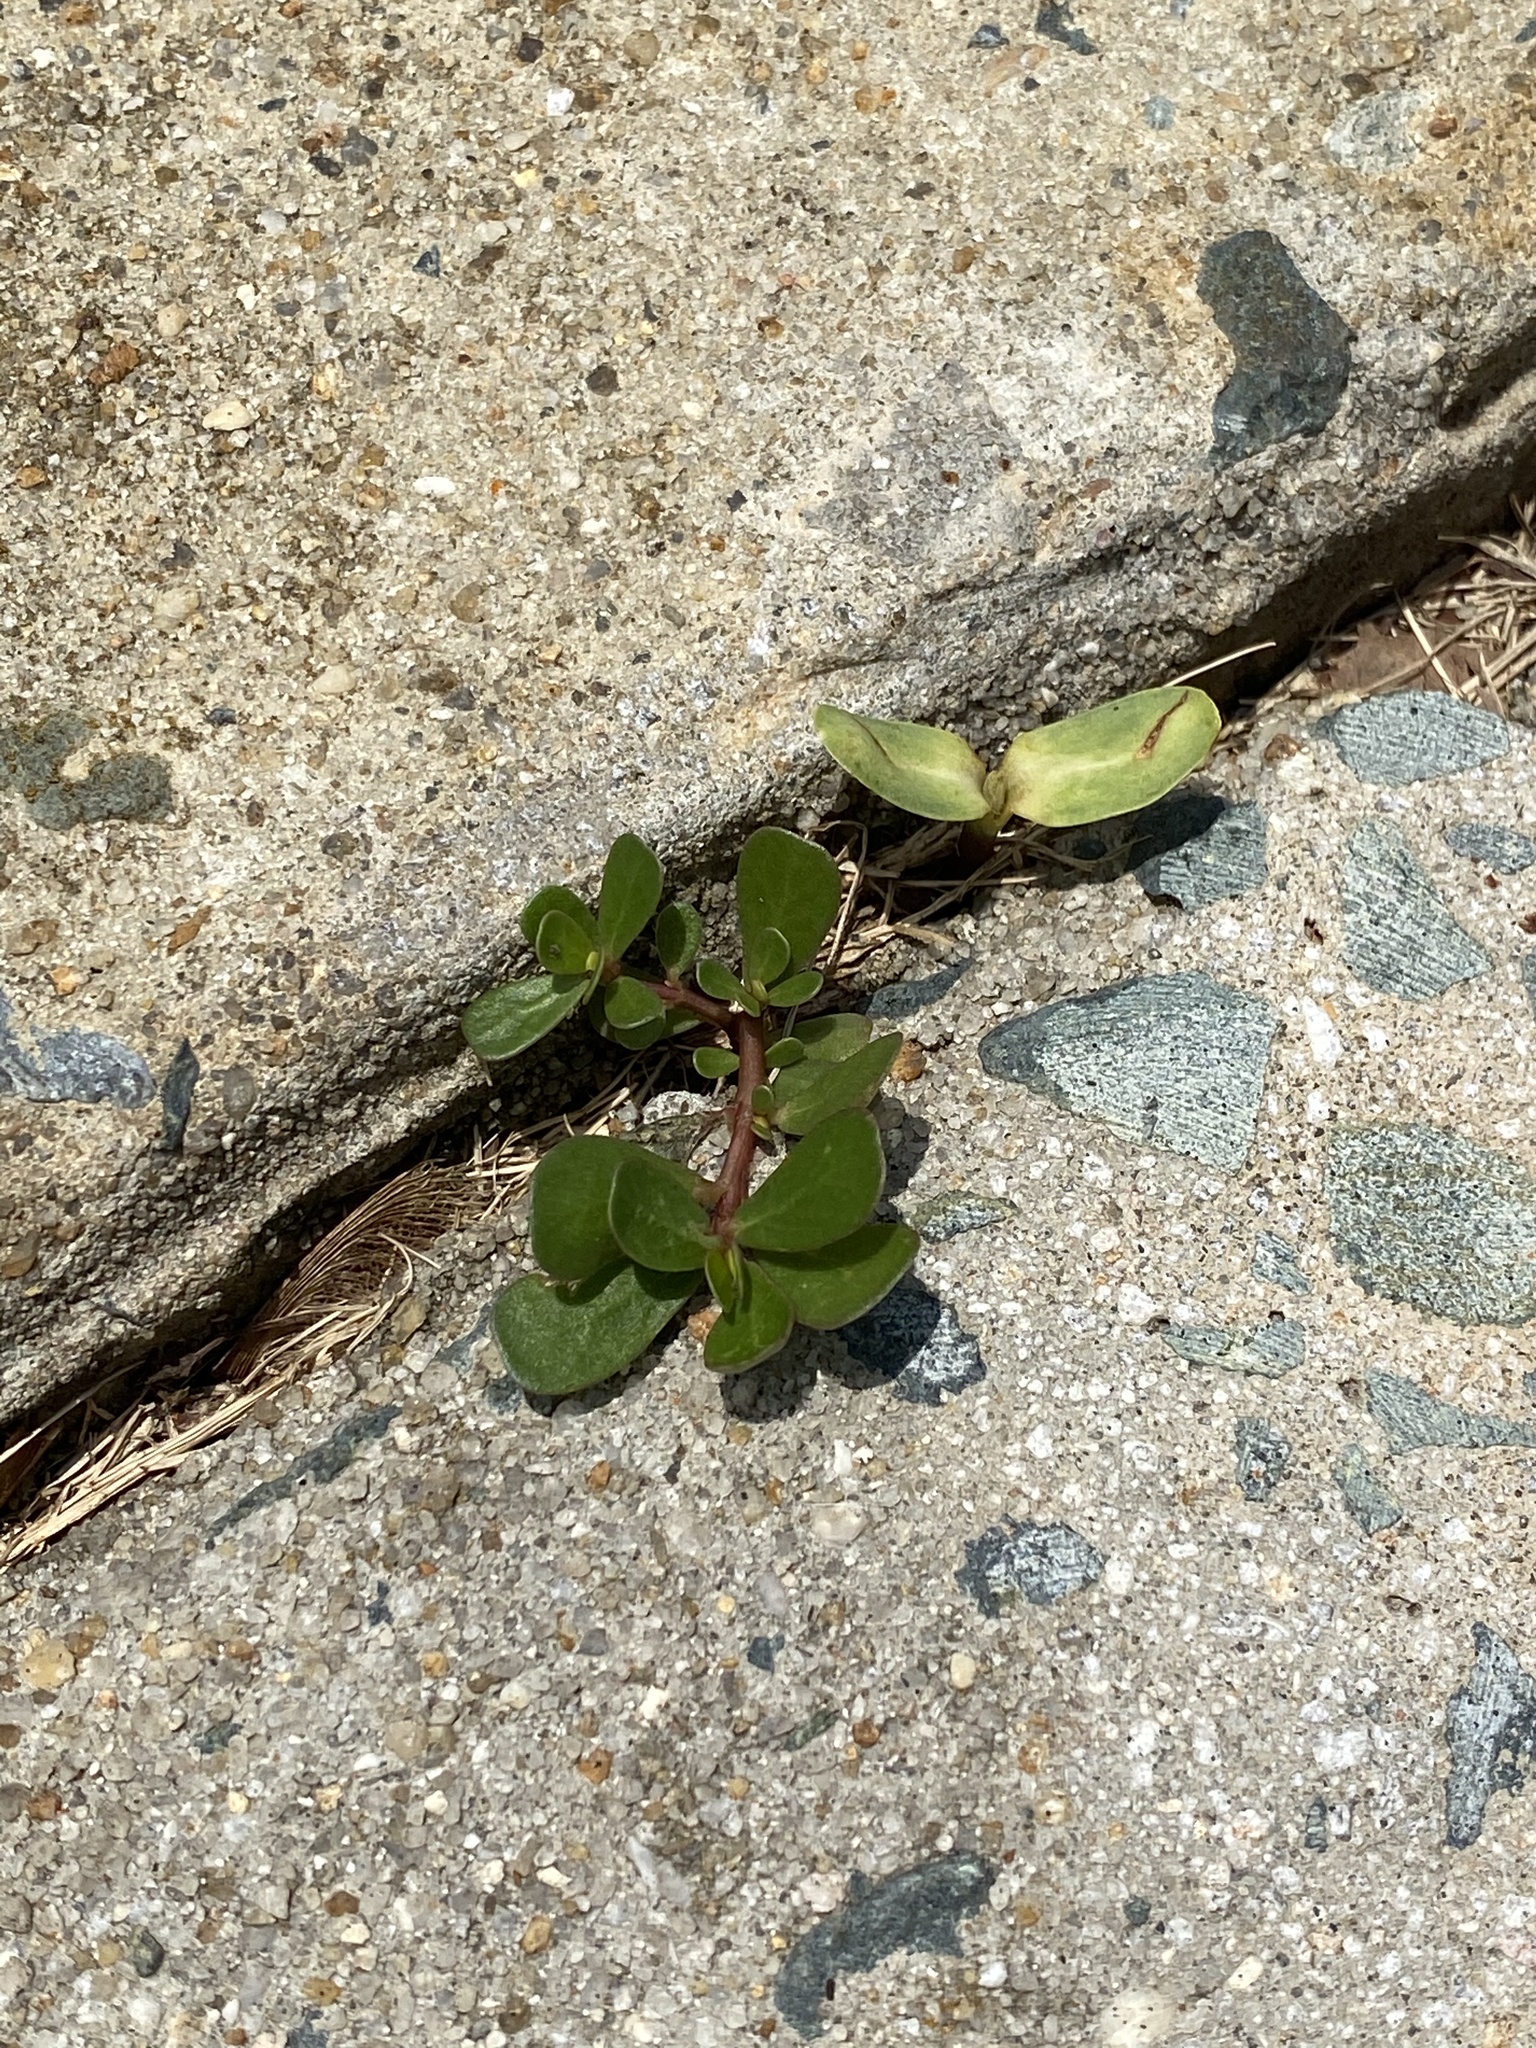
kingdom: Plantae
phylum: Tracheophyta
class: Magnoliopsida
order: Caryophyllales
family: Portulacaceae
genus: Portulaca
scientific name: Portulaca oleracea
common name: Common purslane
